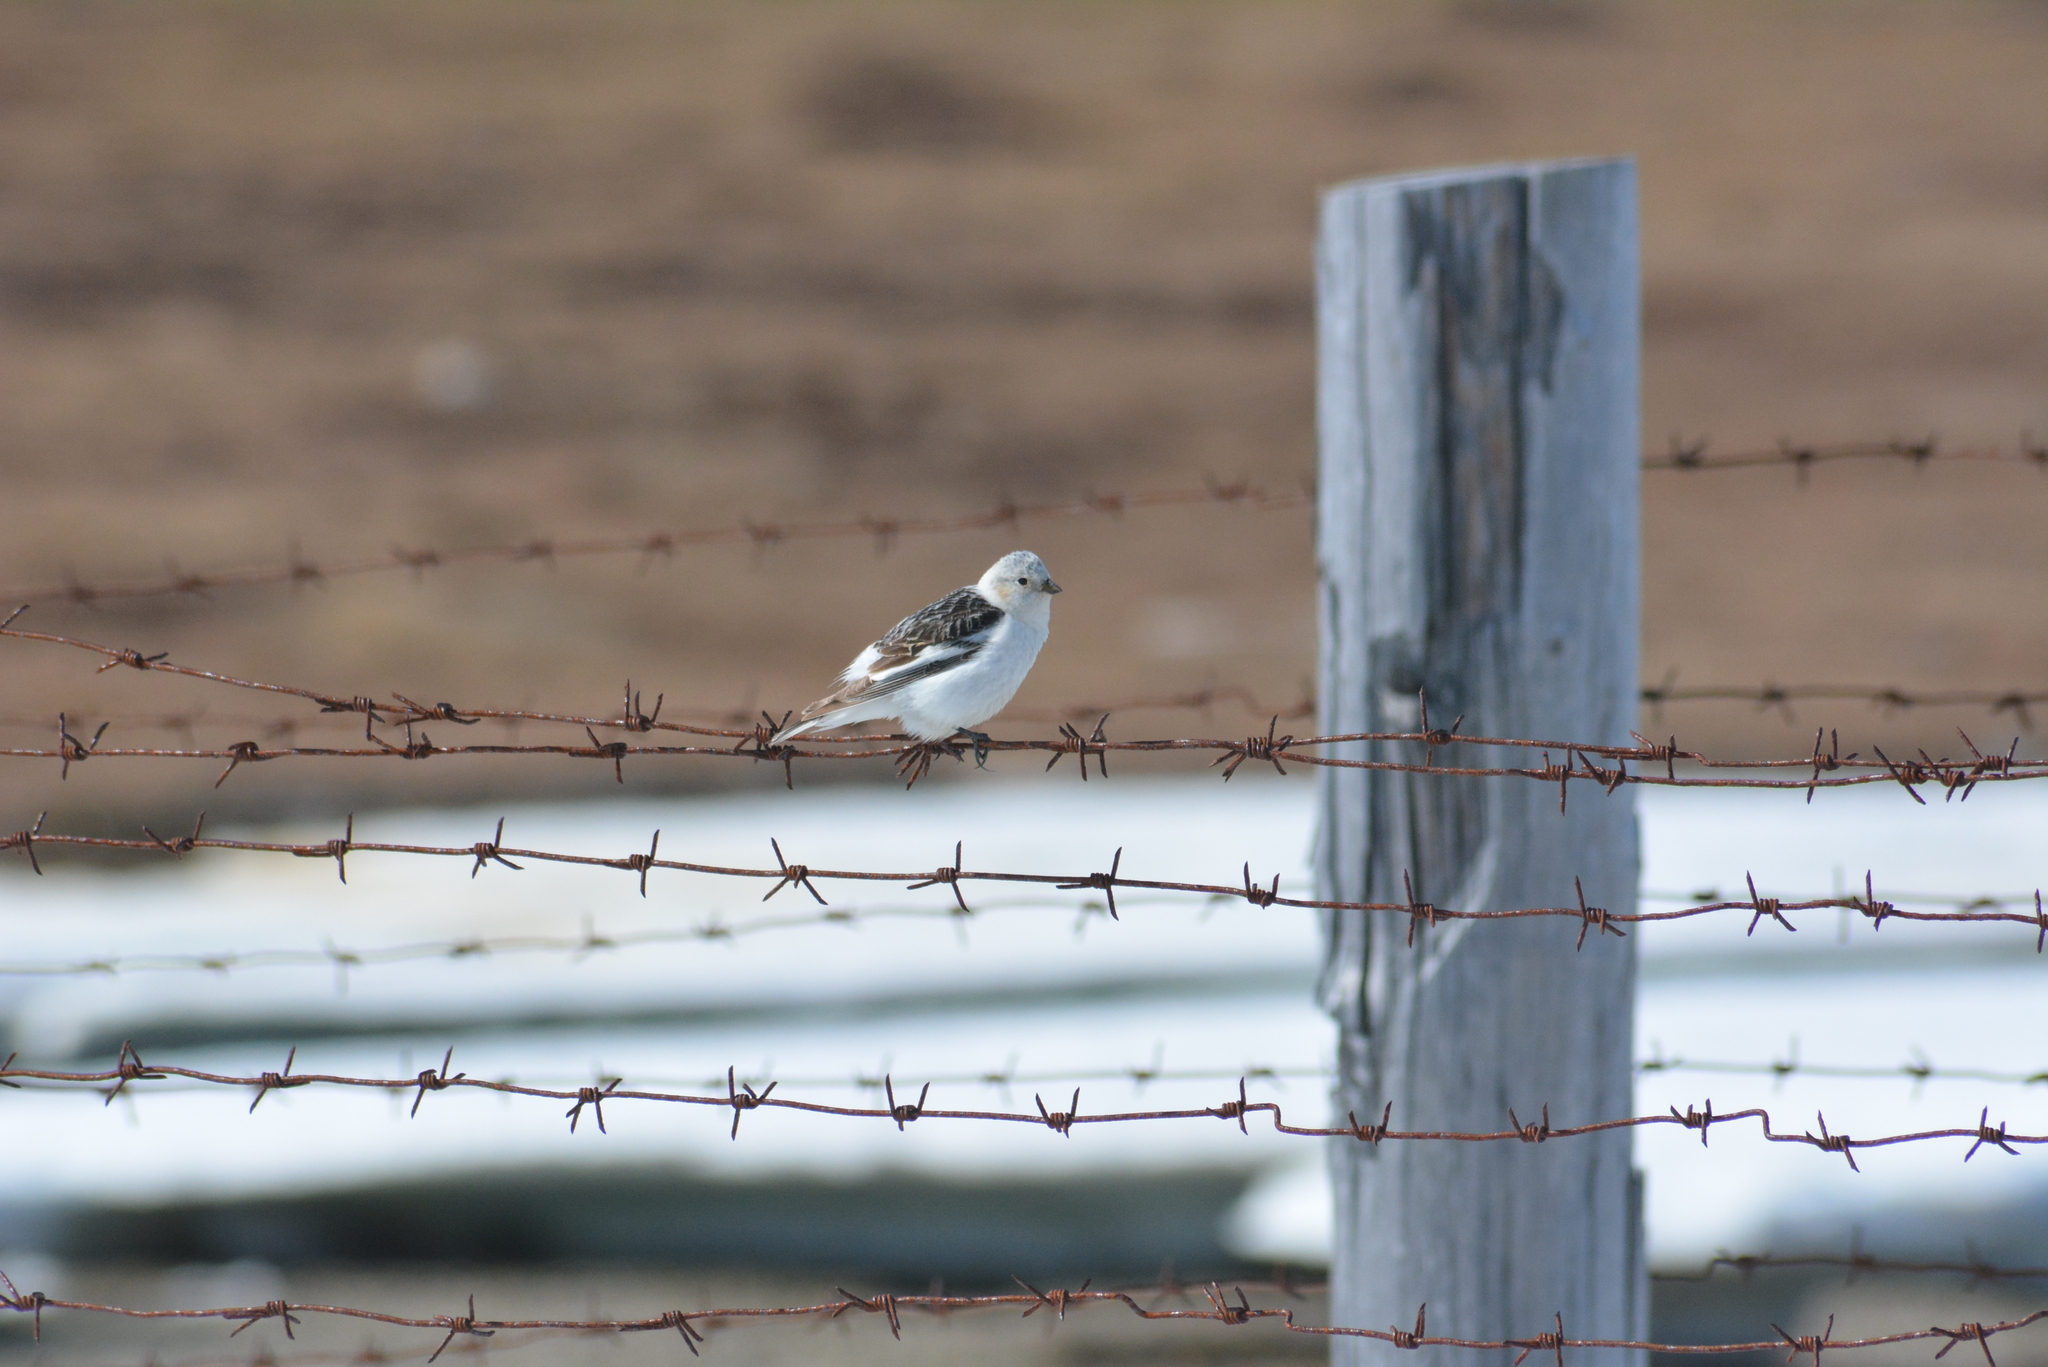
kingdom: Animalia
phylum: Chordata
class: Aves
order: Passeriformes
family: Calcariidae
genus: Plectrophenax
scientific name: Plectrophenax nivalis
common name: Snow bunting
